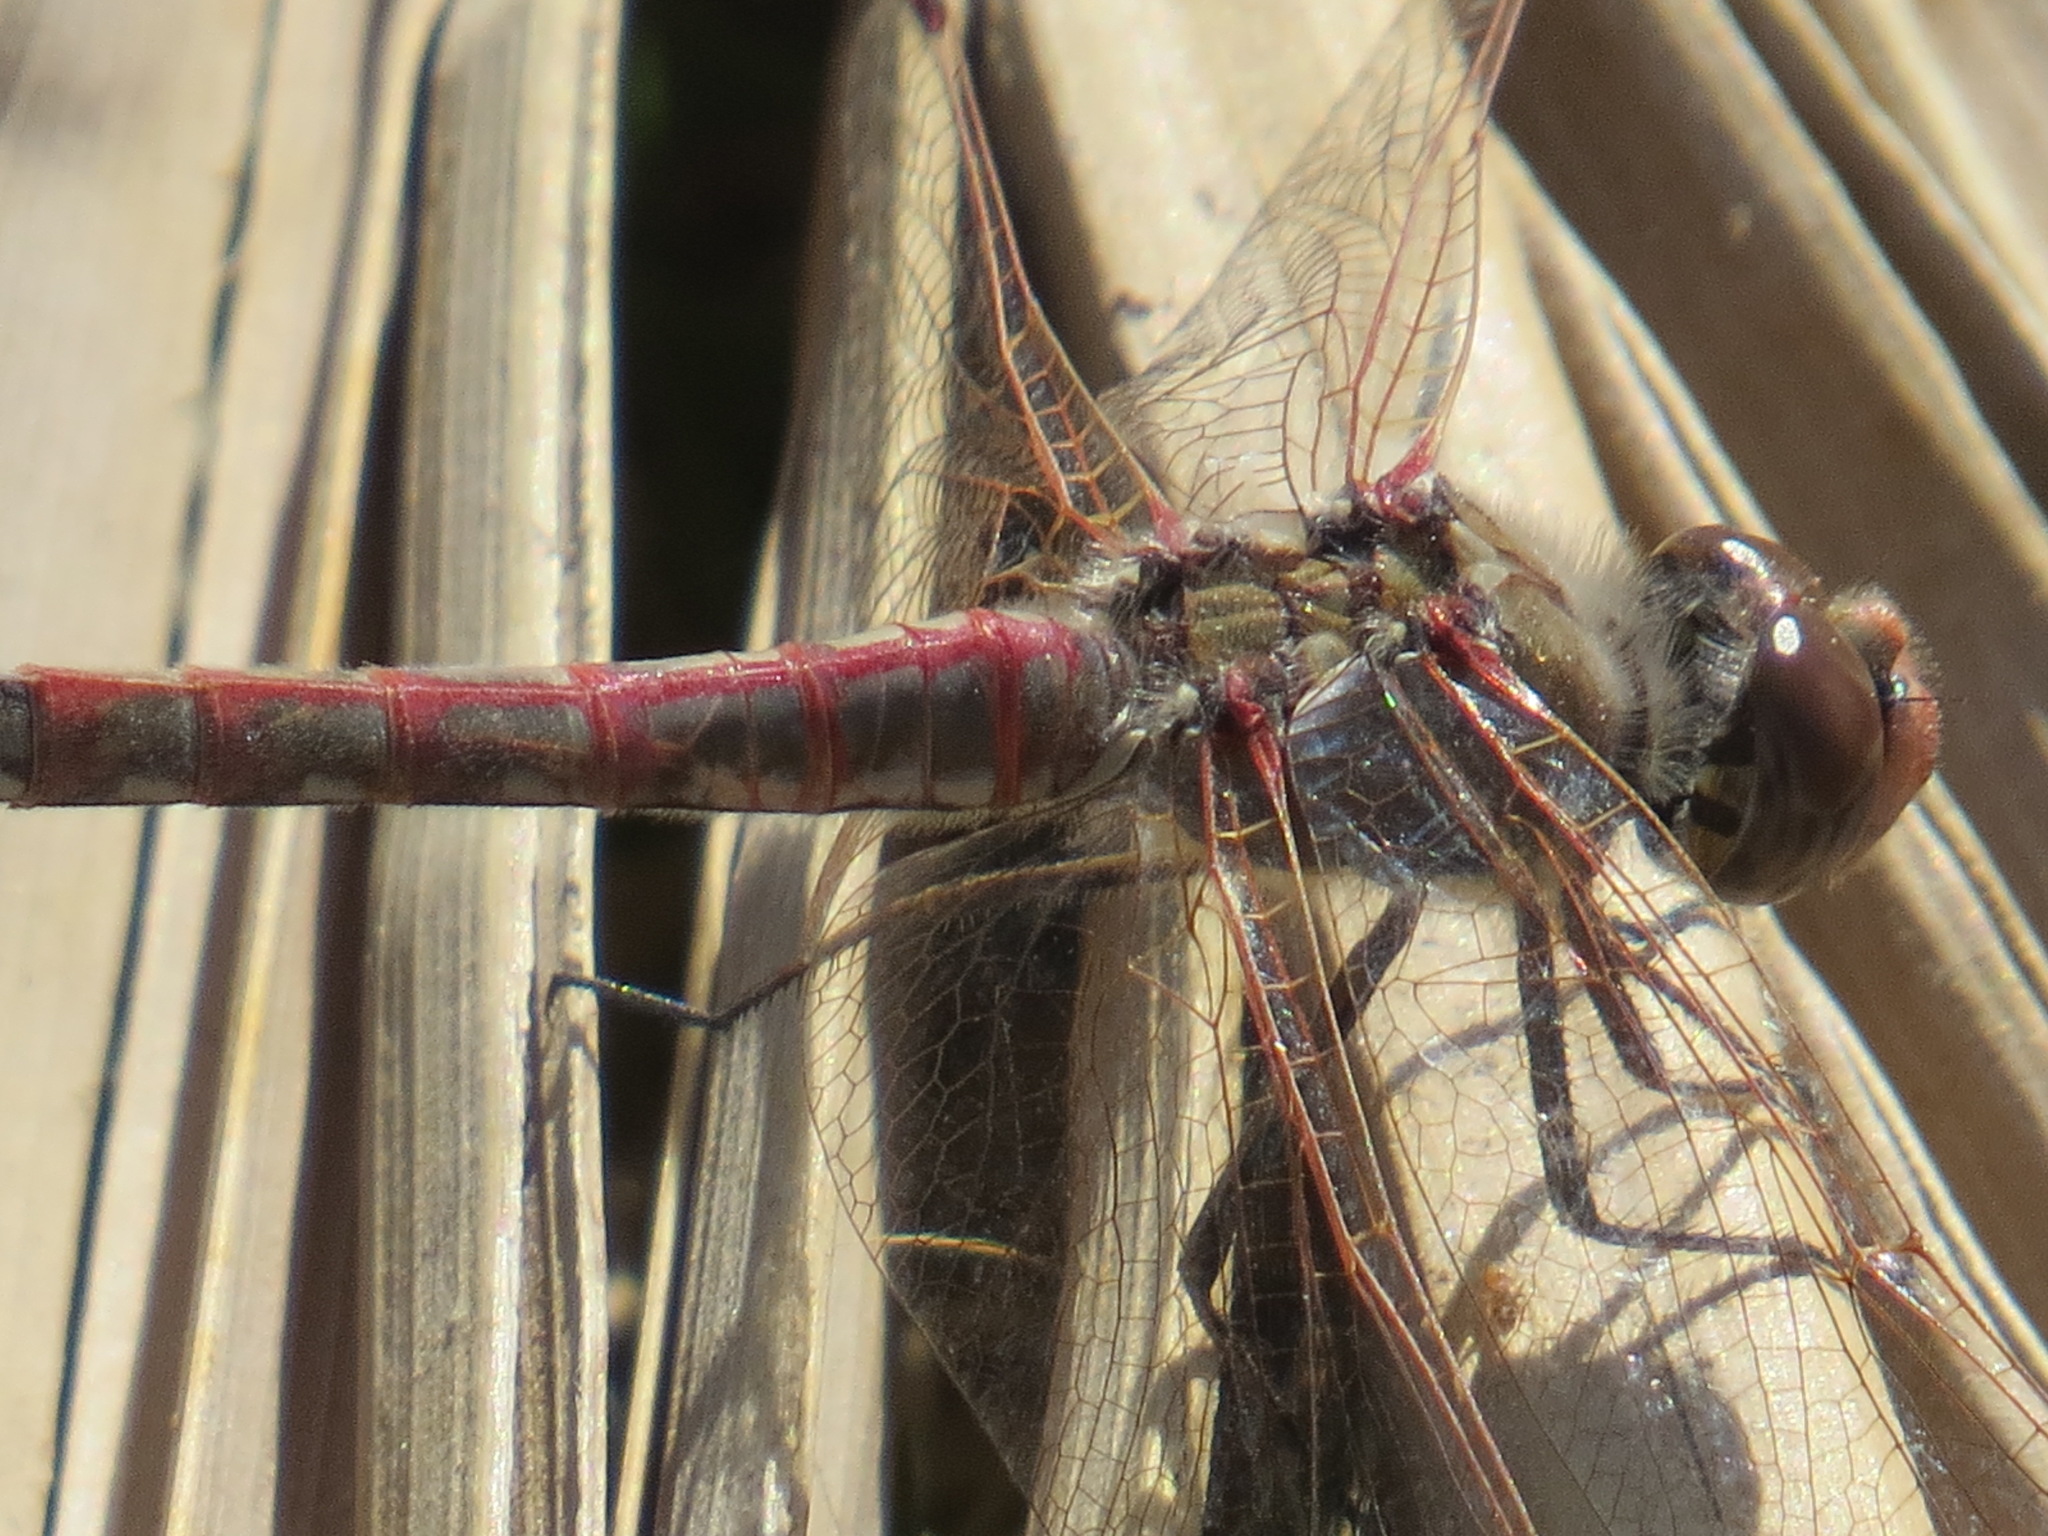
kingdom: Animalia
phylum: Arthropoda
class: Insecta
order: Odonata
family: Libellulidae
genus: Sympetrum
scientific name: Sympetrum corruptum
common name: Variegated meadowhawk
